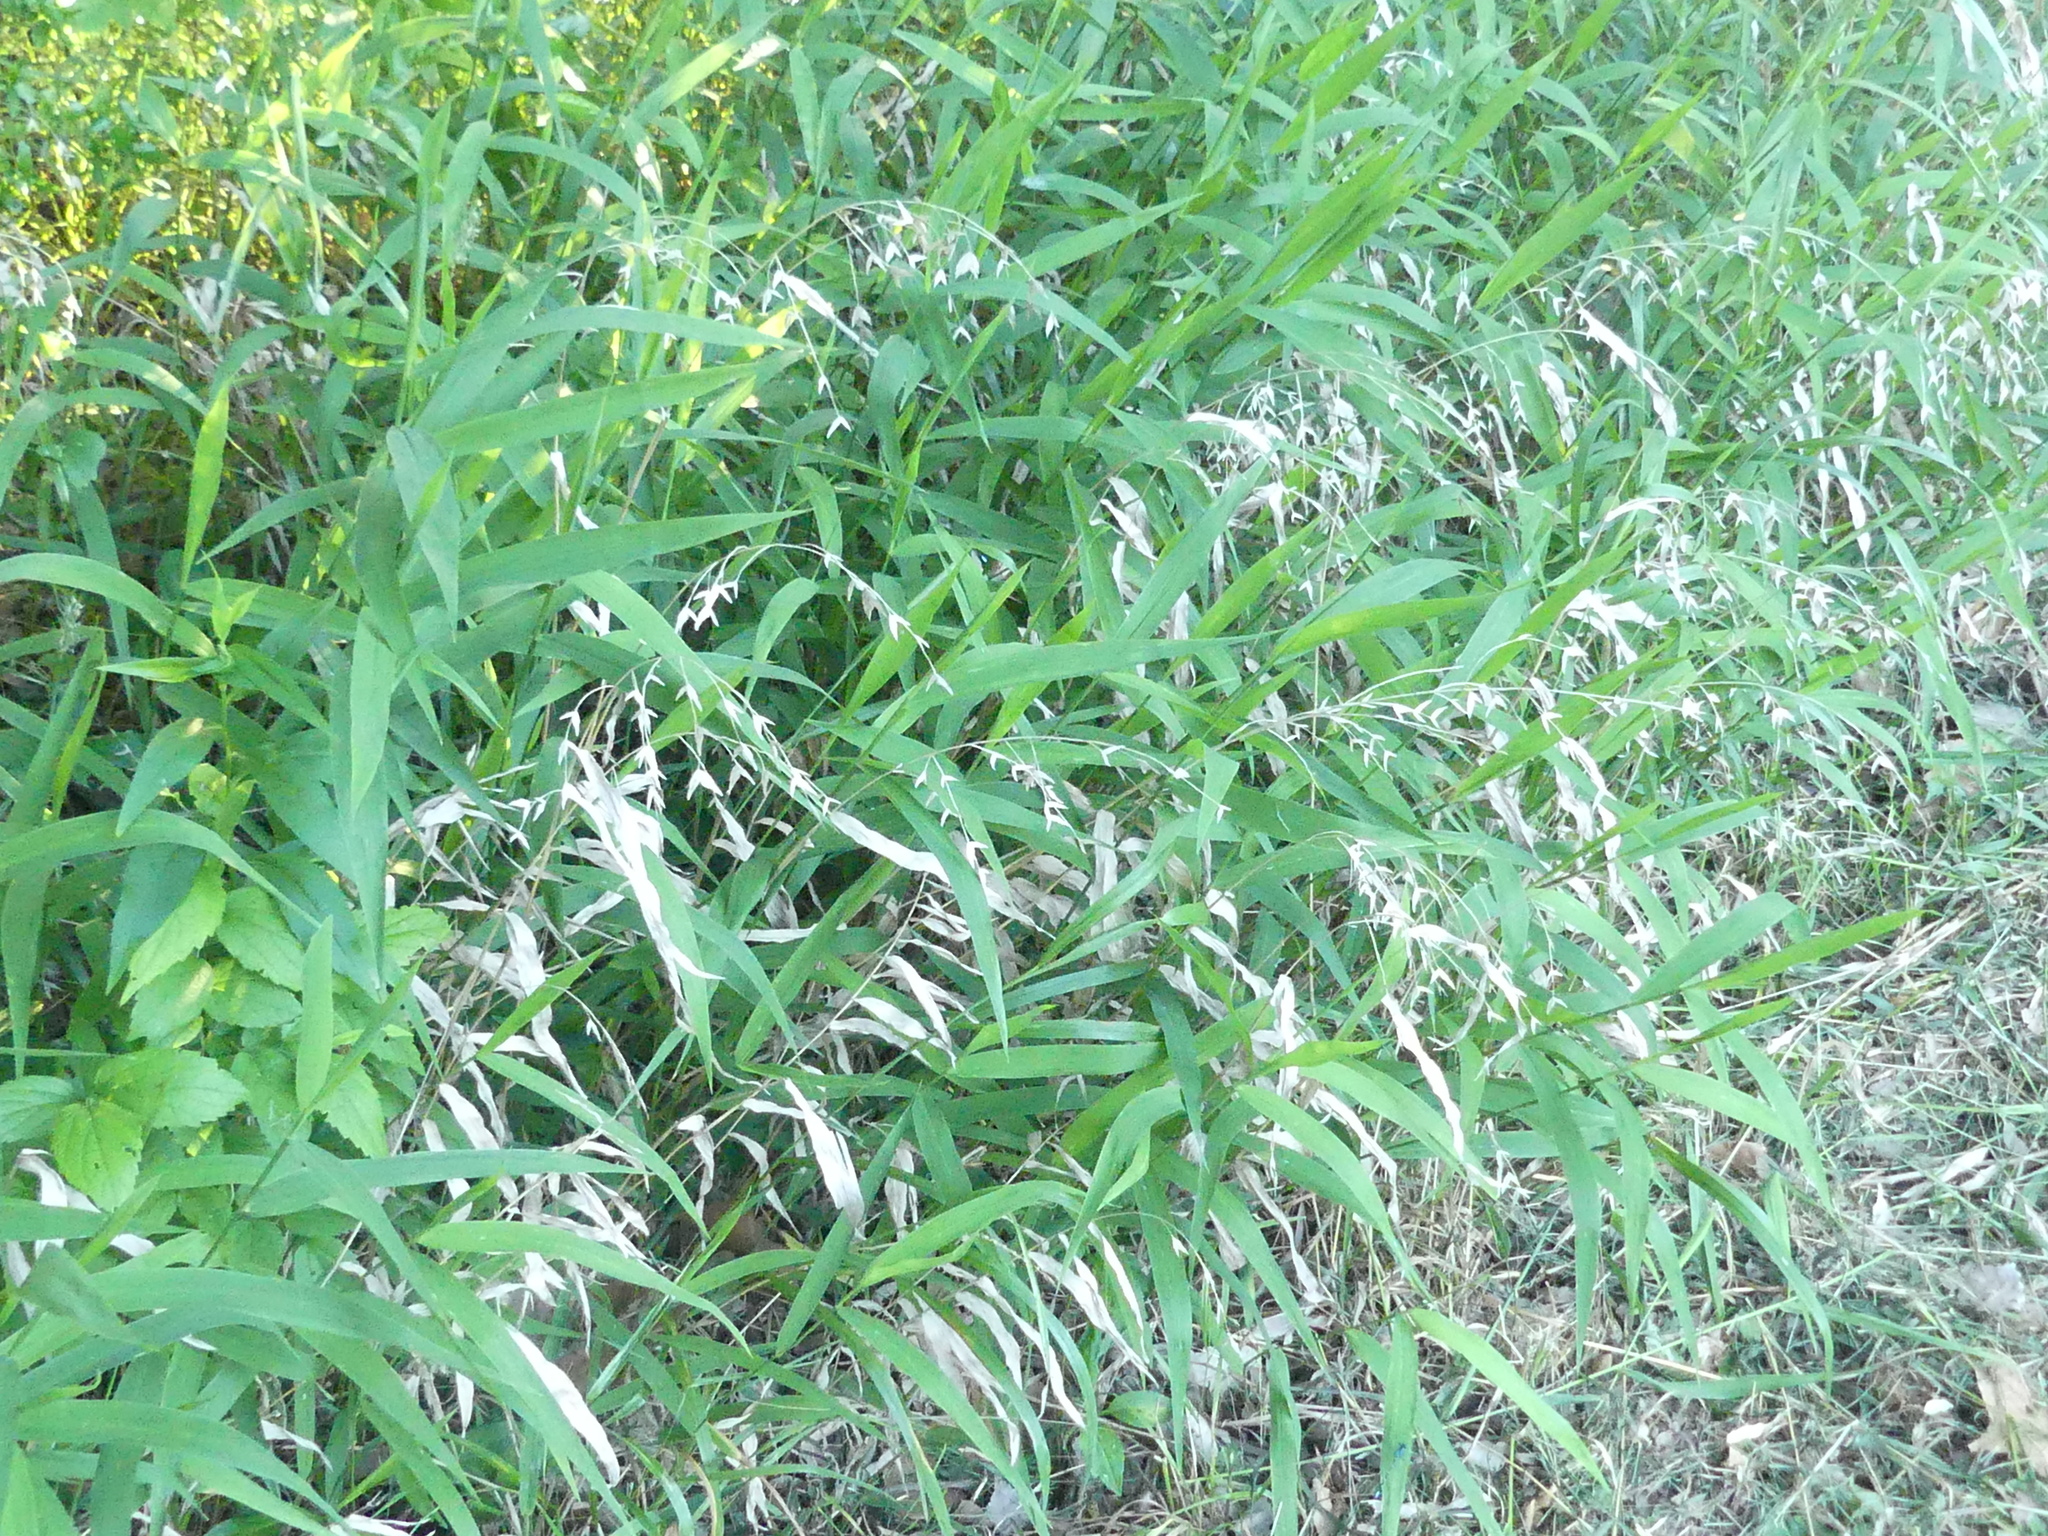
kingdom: Plantae
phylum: Tracheophyta
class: Liliopsida
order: Poales
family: Poaceae
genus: Chasmanthium
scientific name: Chasmanthium latifolium
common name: Broad-leaved chasmanthium
